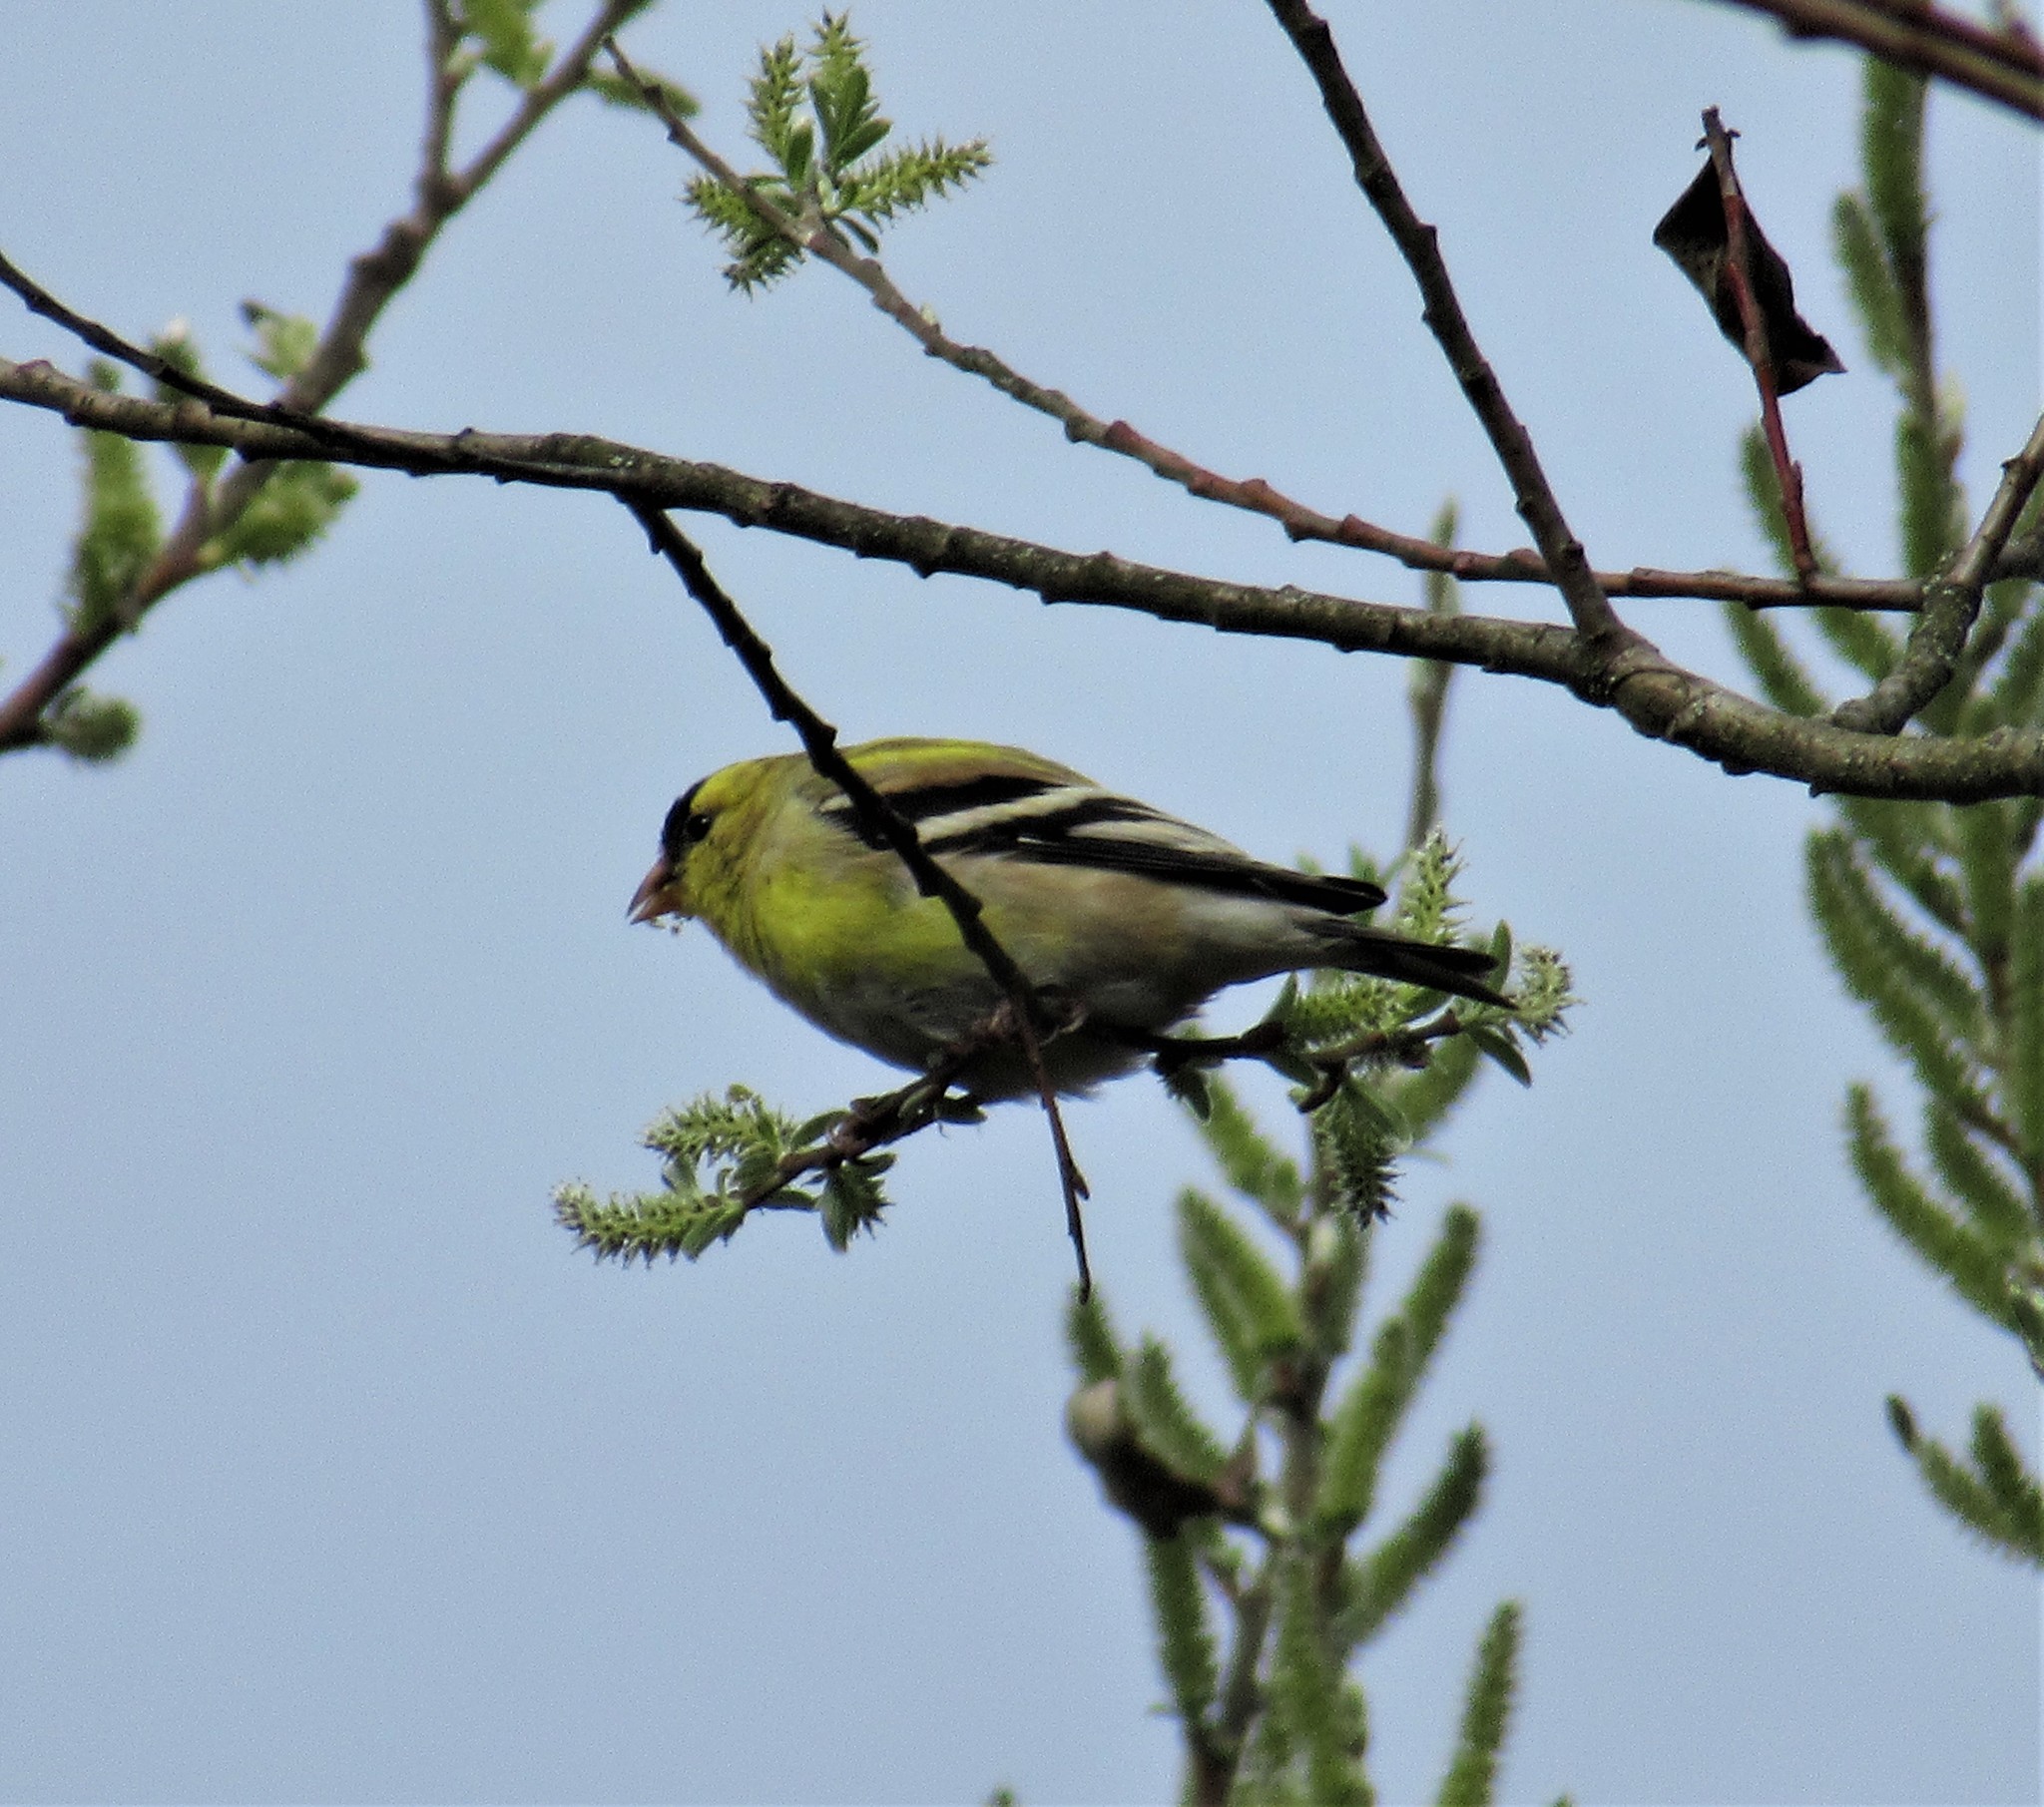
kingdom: Animalia
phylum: Chordata
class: Aves
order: Passeriformes
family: Fringillidae
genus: Spinus
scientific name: Spinus tristis
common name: American goldfinch
